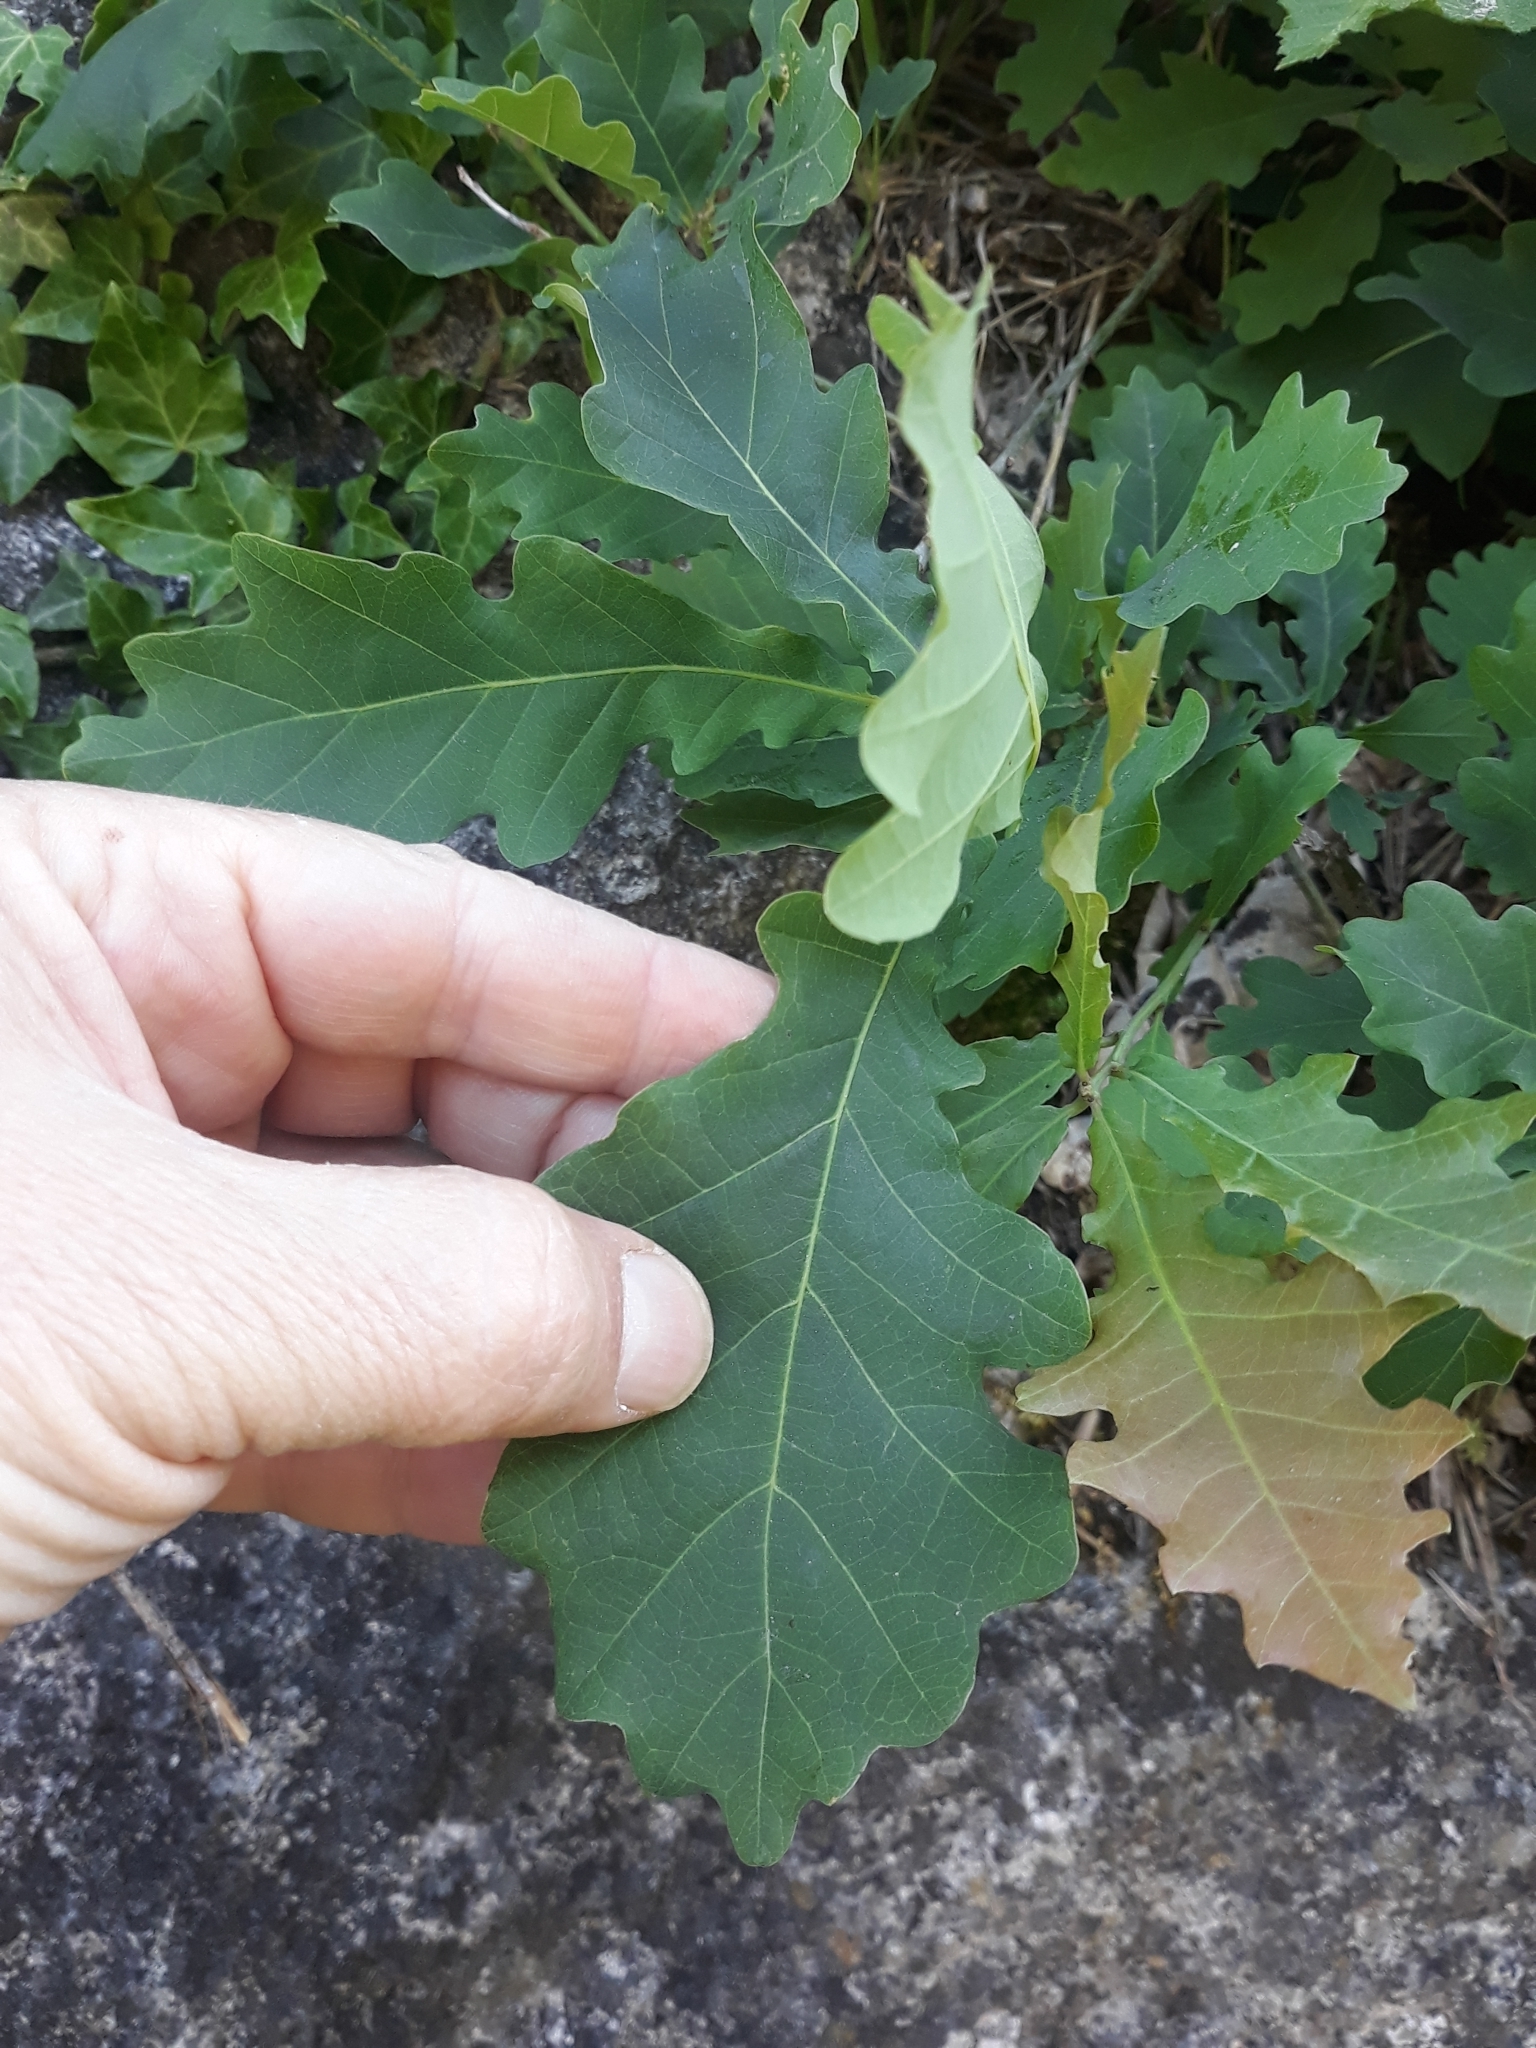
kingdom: Plantae
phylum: Tracheophyta
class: Magnoliopsida
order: Fagales
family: Fagaceae
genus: Quercus
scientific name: Quercus robur
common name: Pedunculate oak
